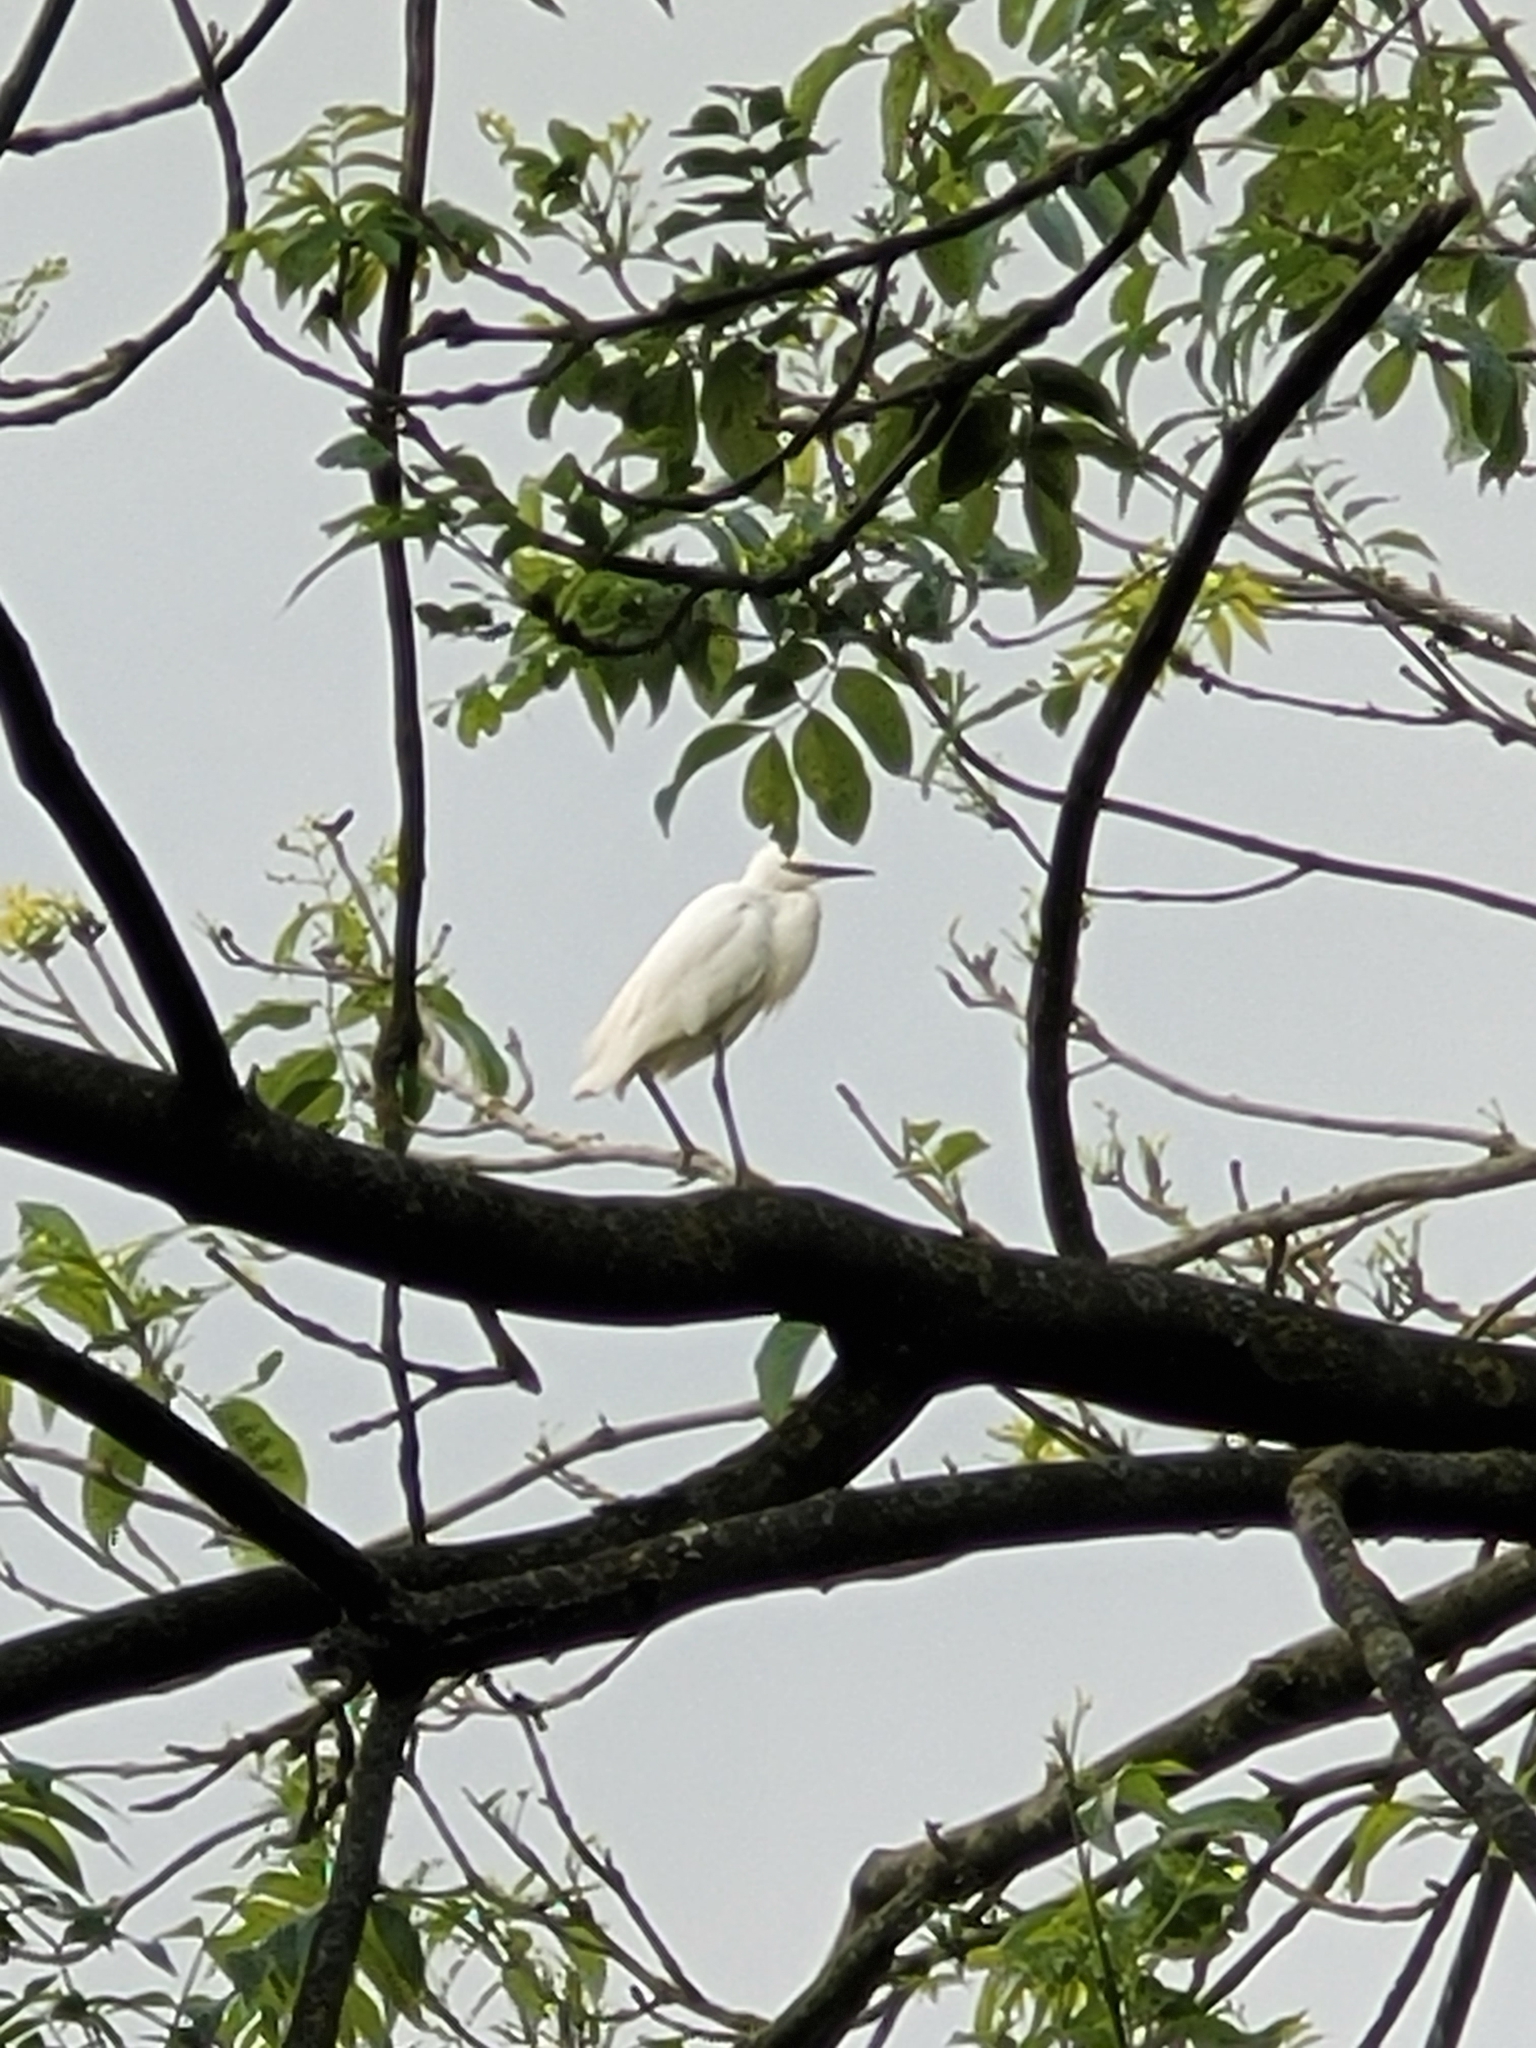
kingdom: Animalia
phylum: Chordata
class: Aves
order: Pelecaniformes
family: Ardeidae
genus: Egretta
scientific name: Egretta garzetta
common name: Little egret
